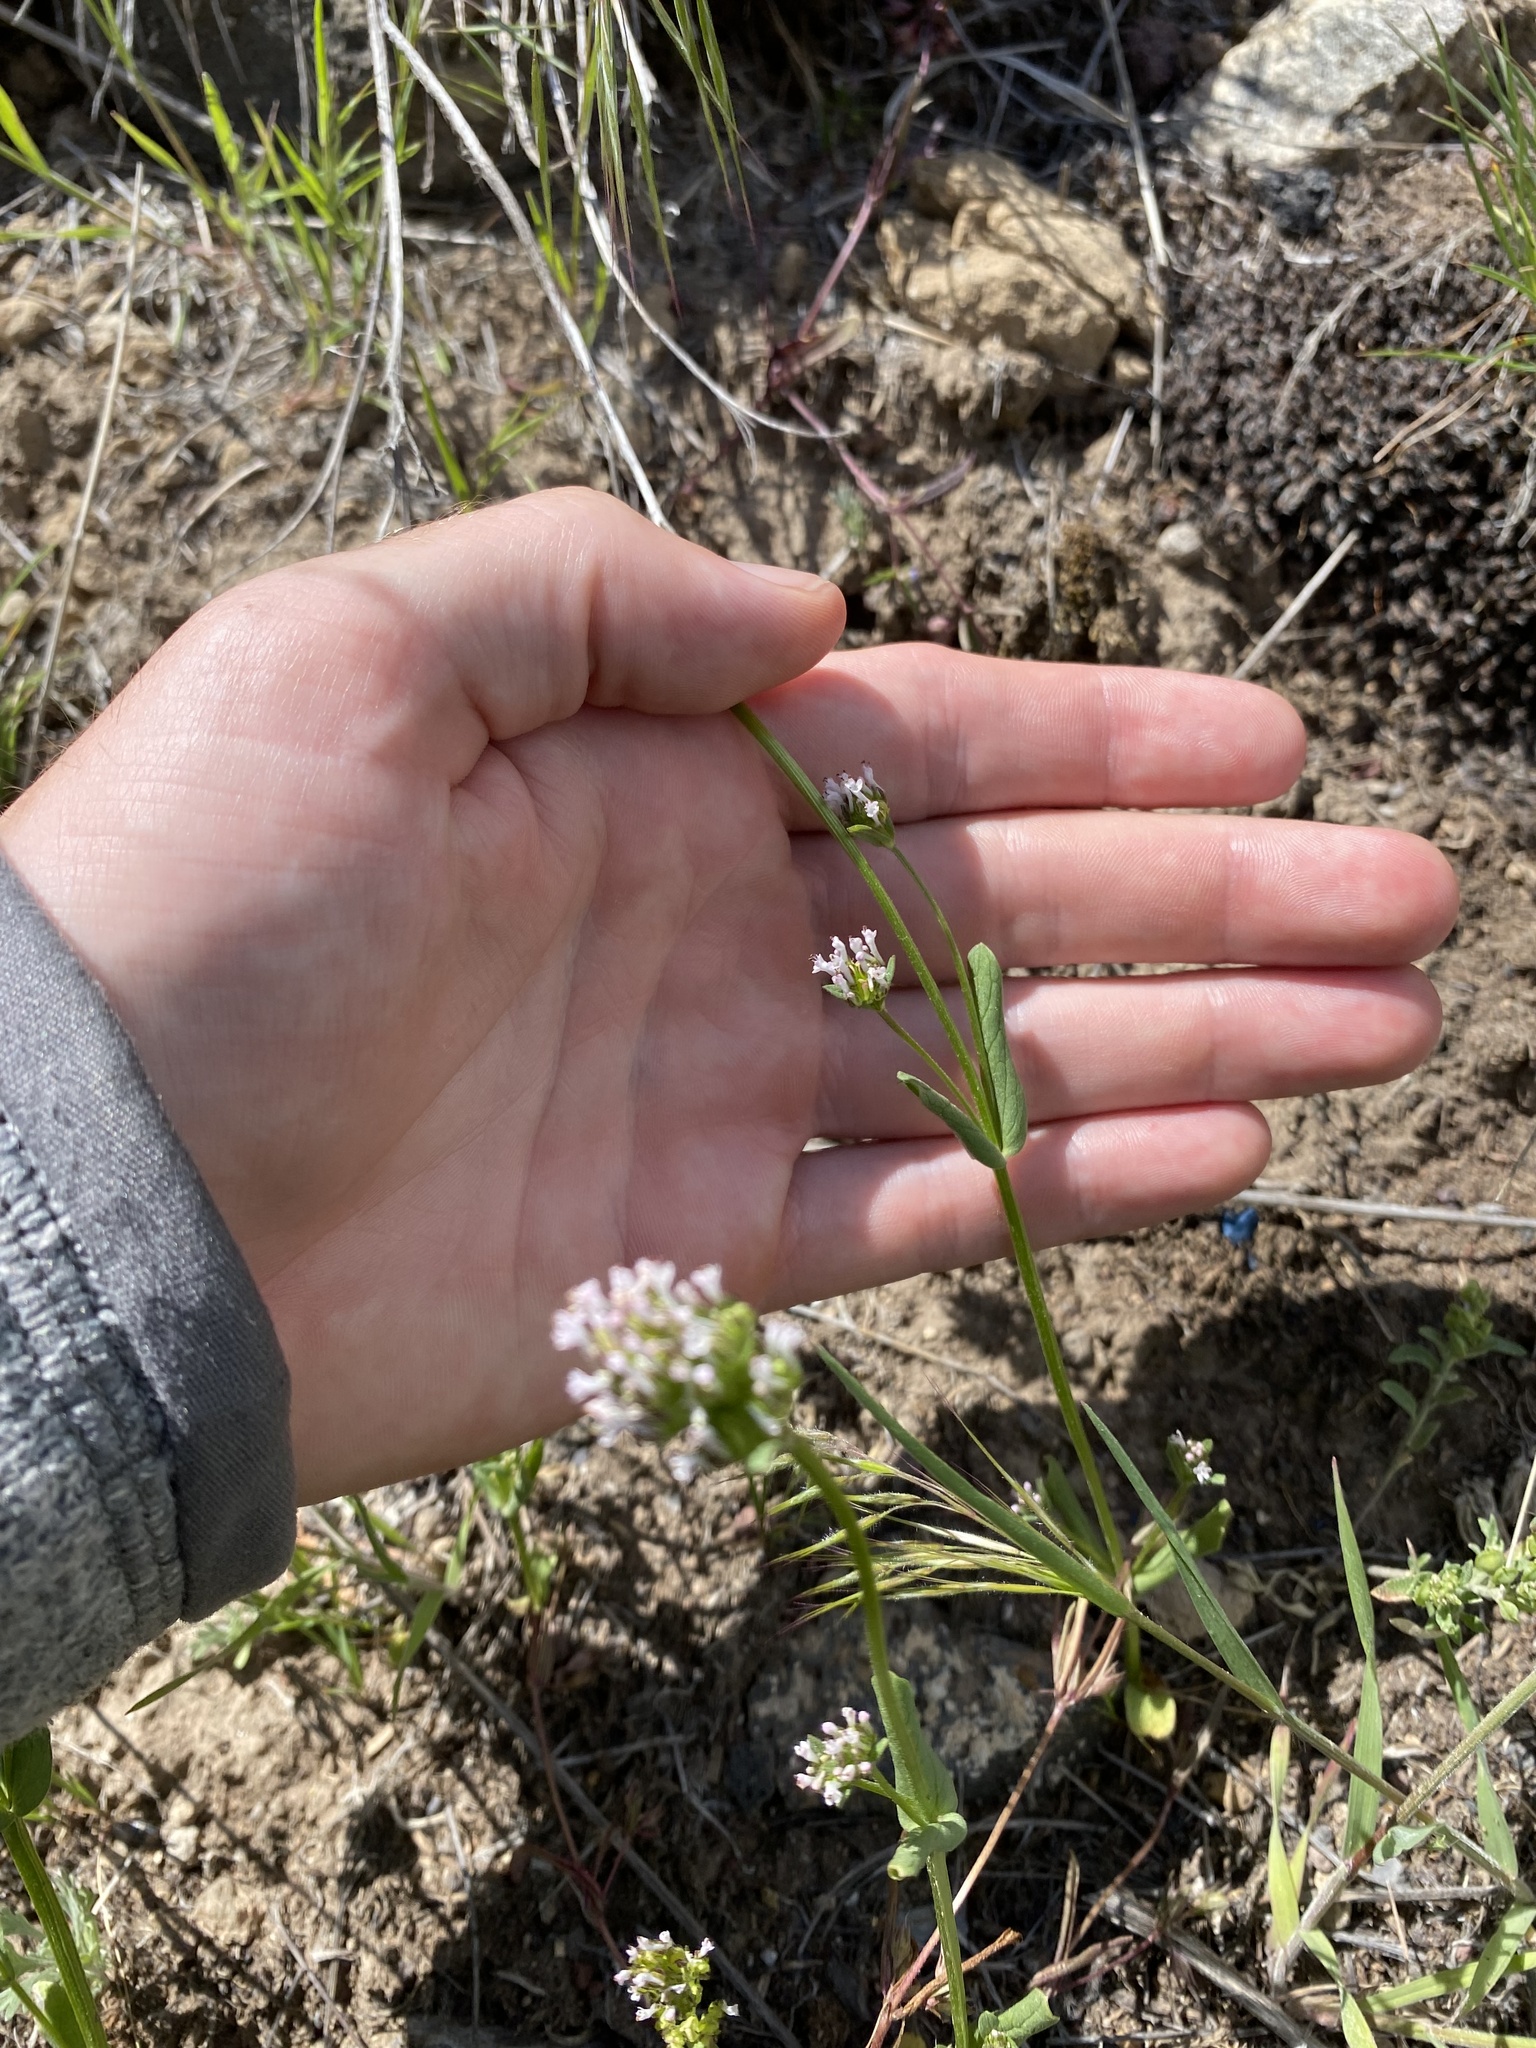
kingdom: Plantae
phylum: Tracheophyta
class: Magnoliopsida
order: Dipsacales
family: Caprifoliaceae
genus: Plectritis
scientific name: Plectritis macroptera
